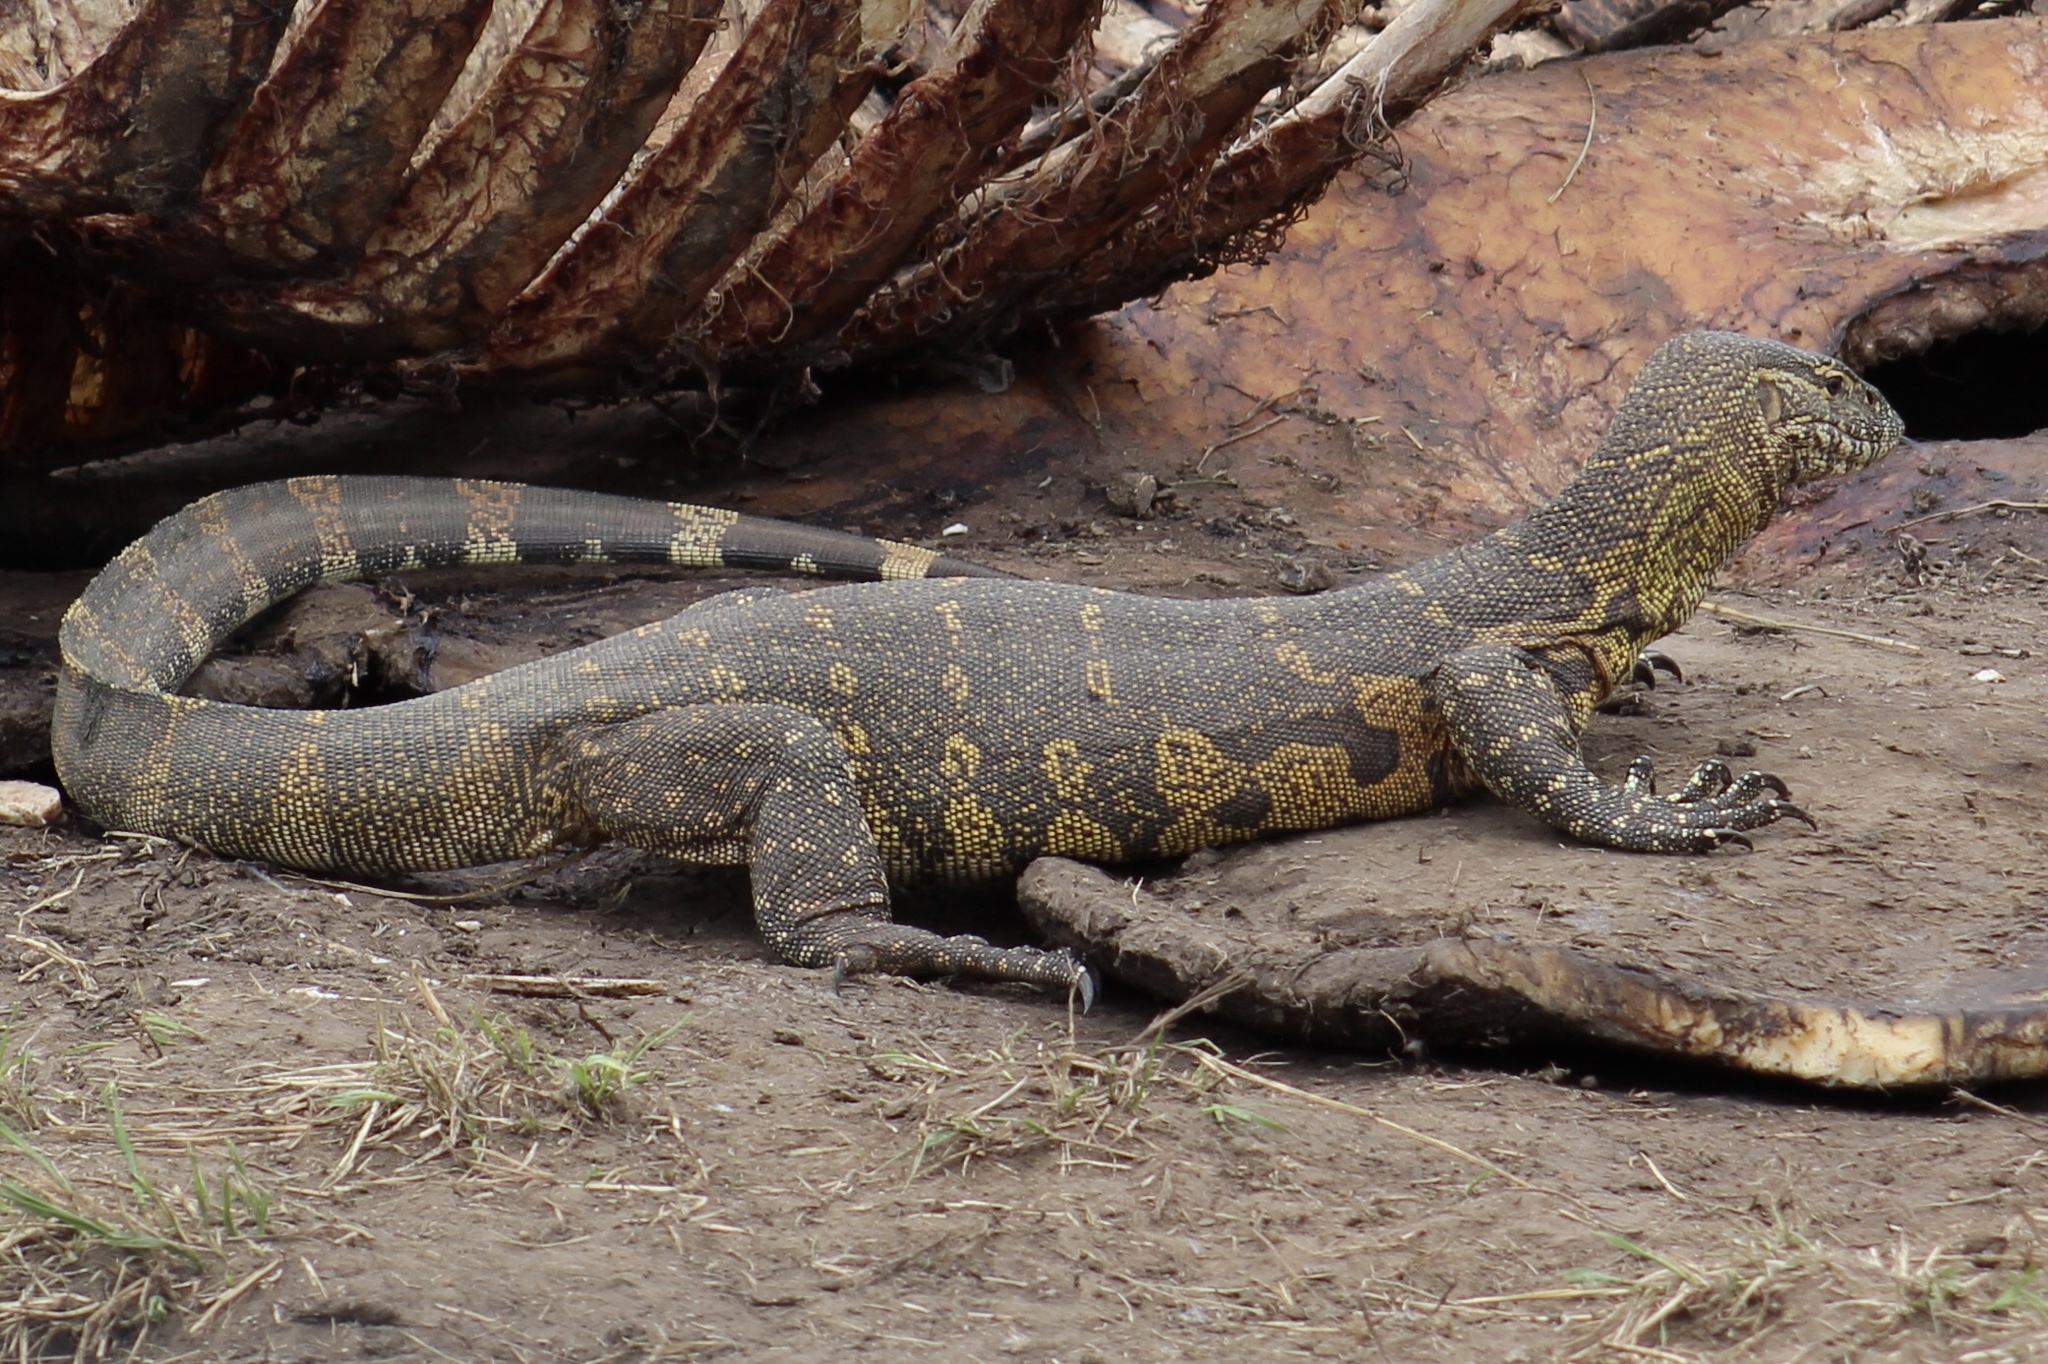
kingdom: Animalia
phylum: Chordata
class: Squamata
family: Varanidae
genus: Varanus
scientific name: Varanus niloticus
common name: Nile monitor
